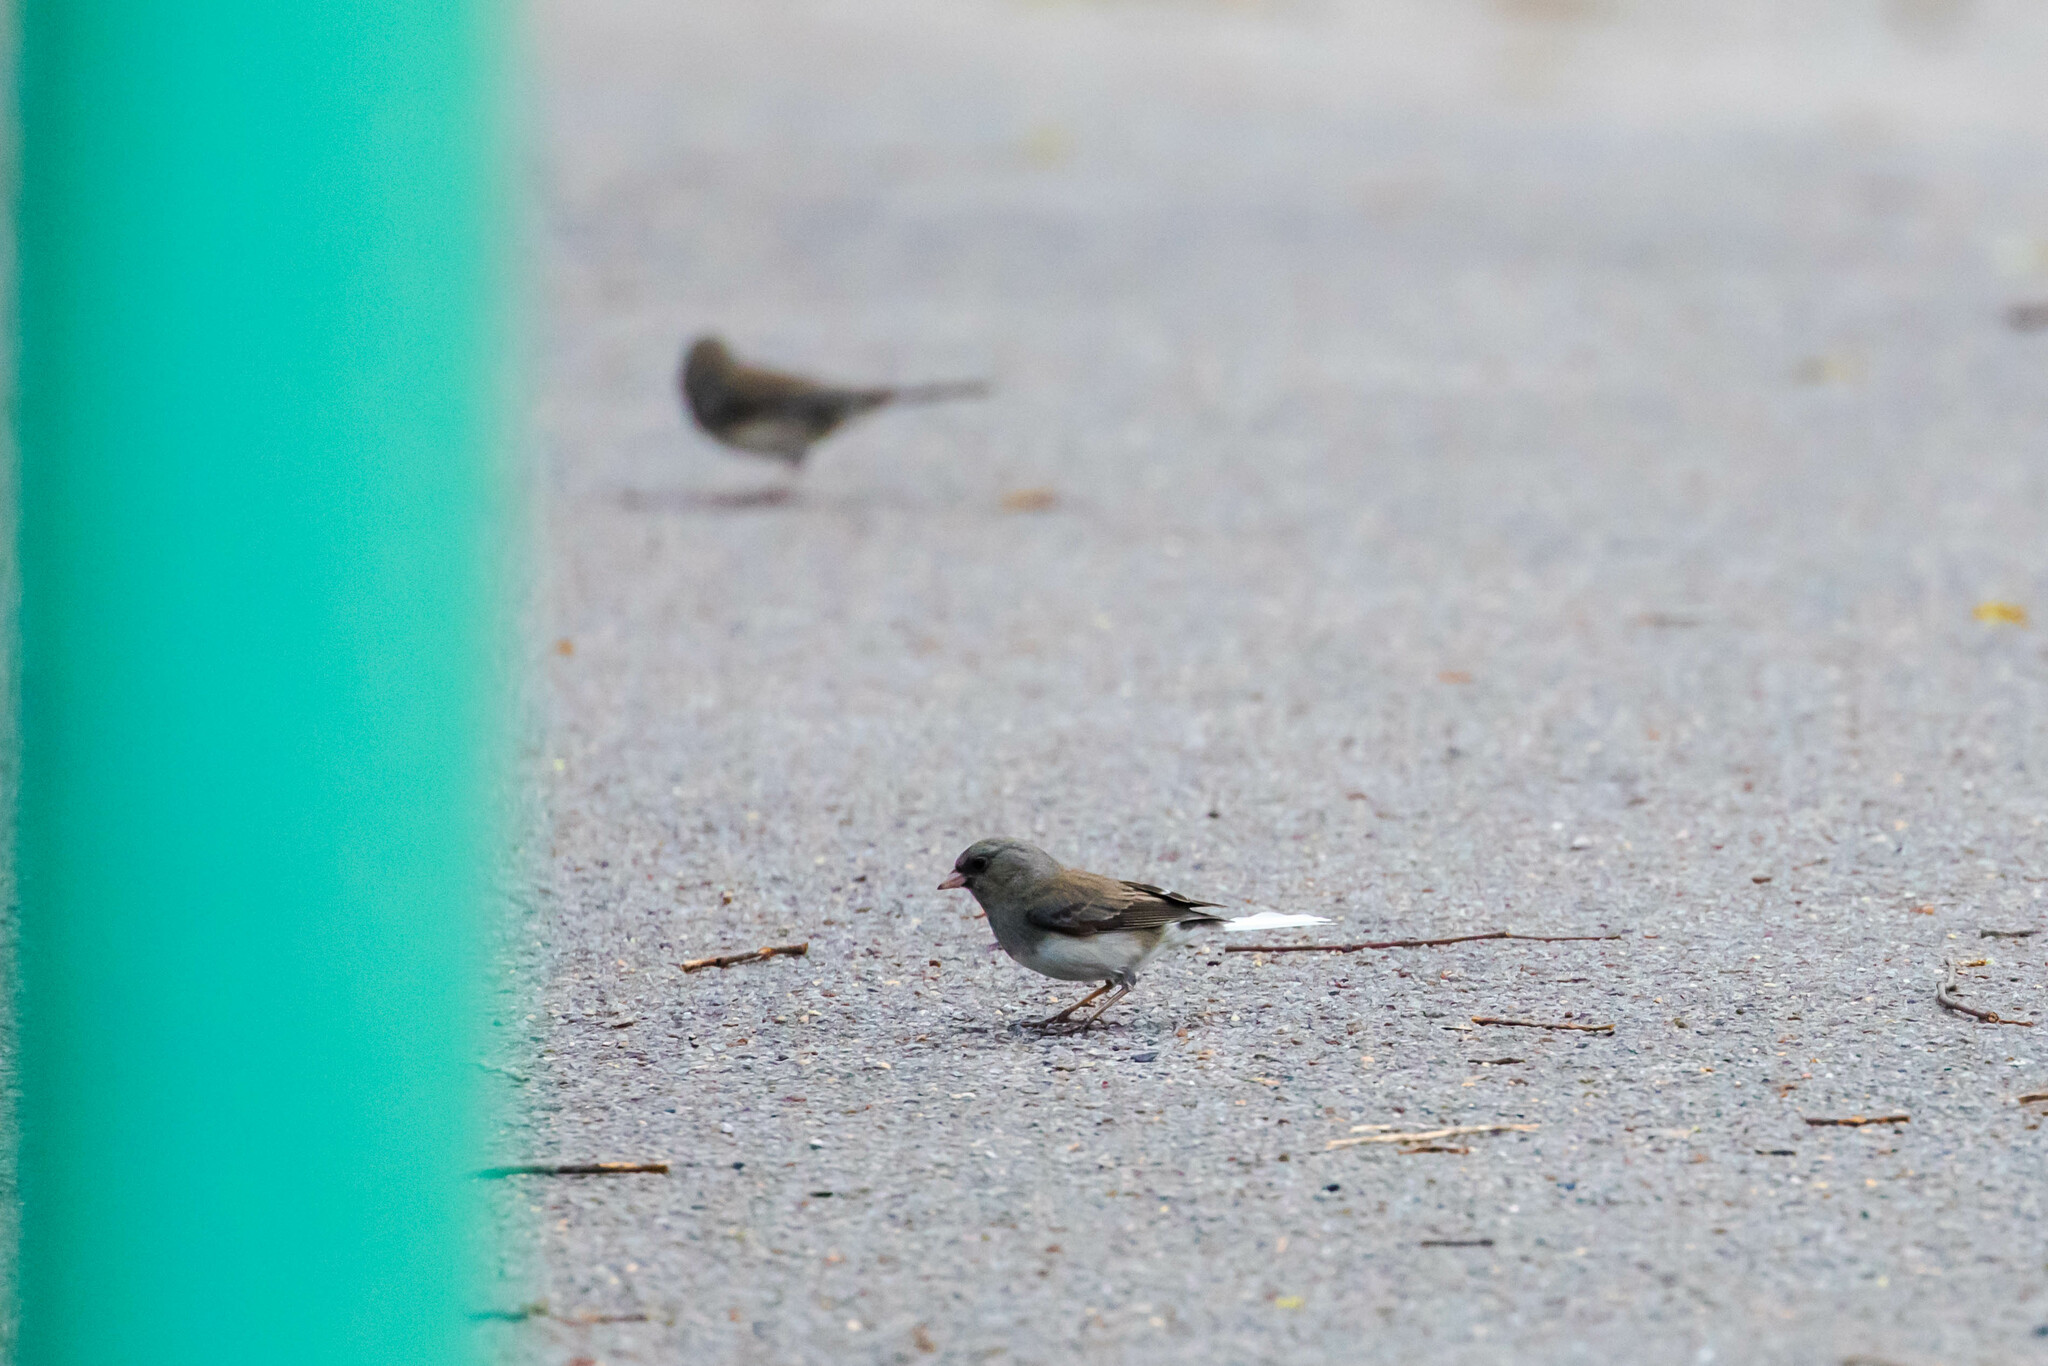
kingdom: Animalia
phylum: Chordata
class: Aves
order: Passeriformes
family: Passerellidae
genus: Junco
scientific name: Junco hyemalis
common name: Dark-eyed junco
